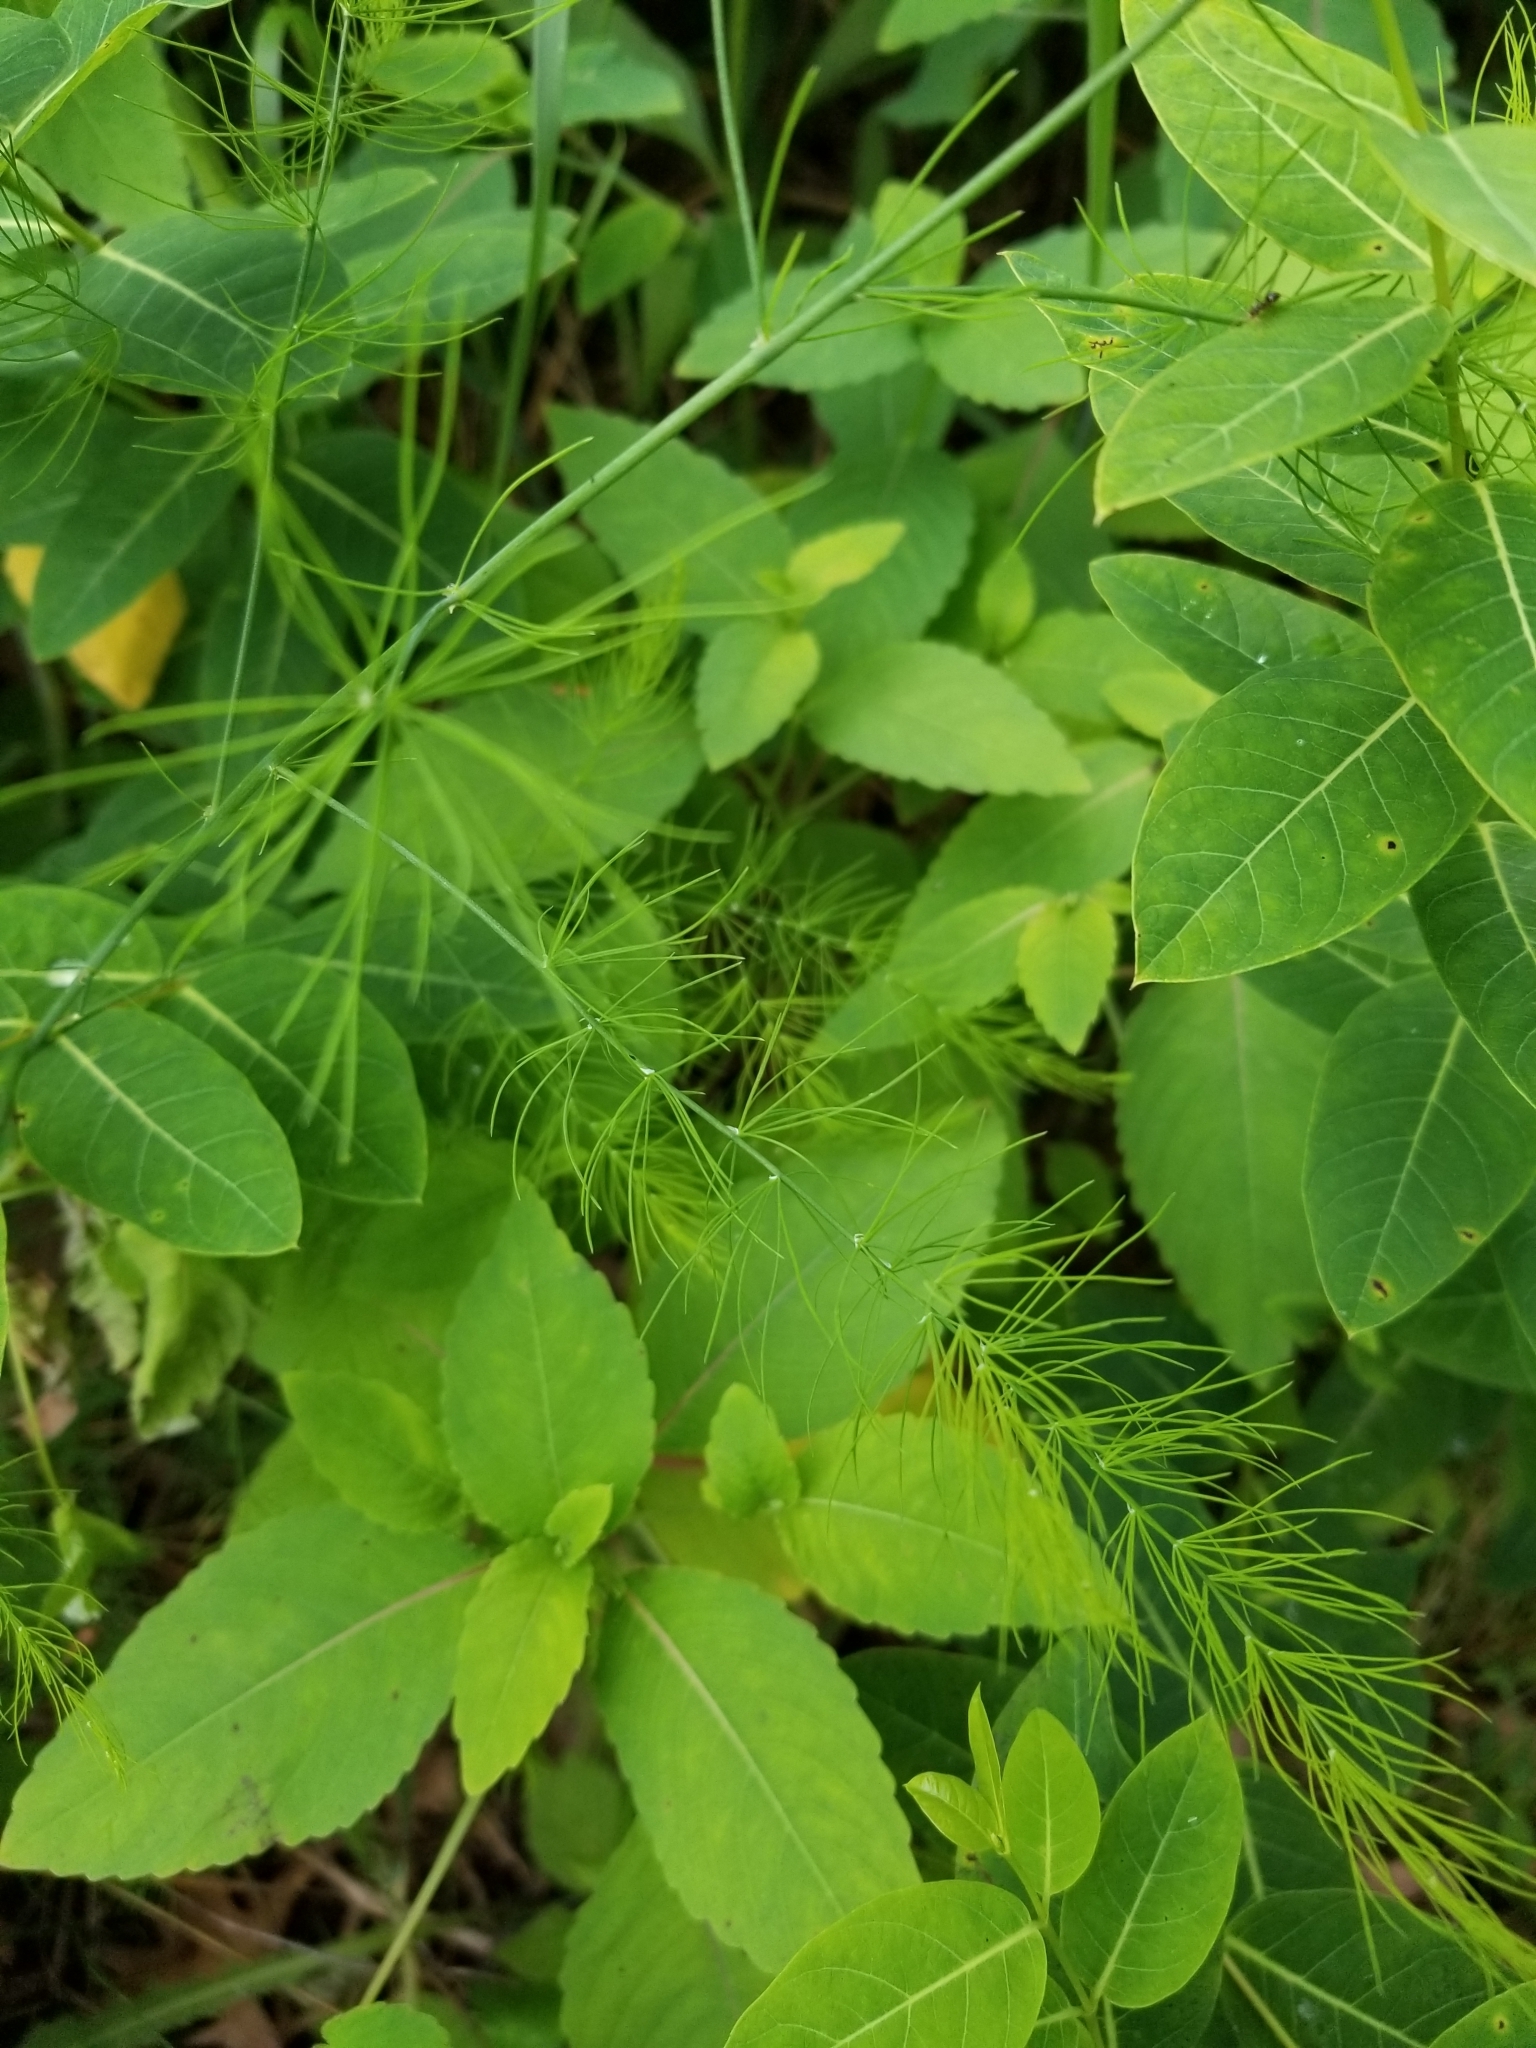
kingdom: Plantae
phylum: Tracheophyta
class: Liliopsida
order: Asparagales
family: Asparagaceae
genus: Asparagus
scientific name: Asparagus officinalis
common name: Garden asparagus
